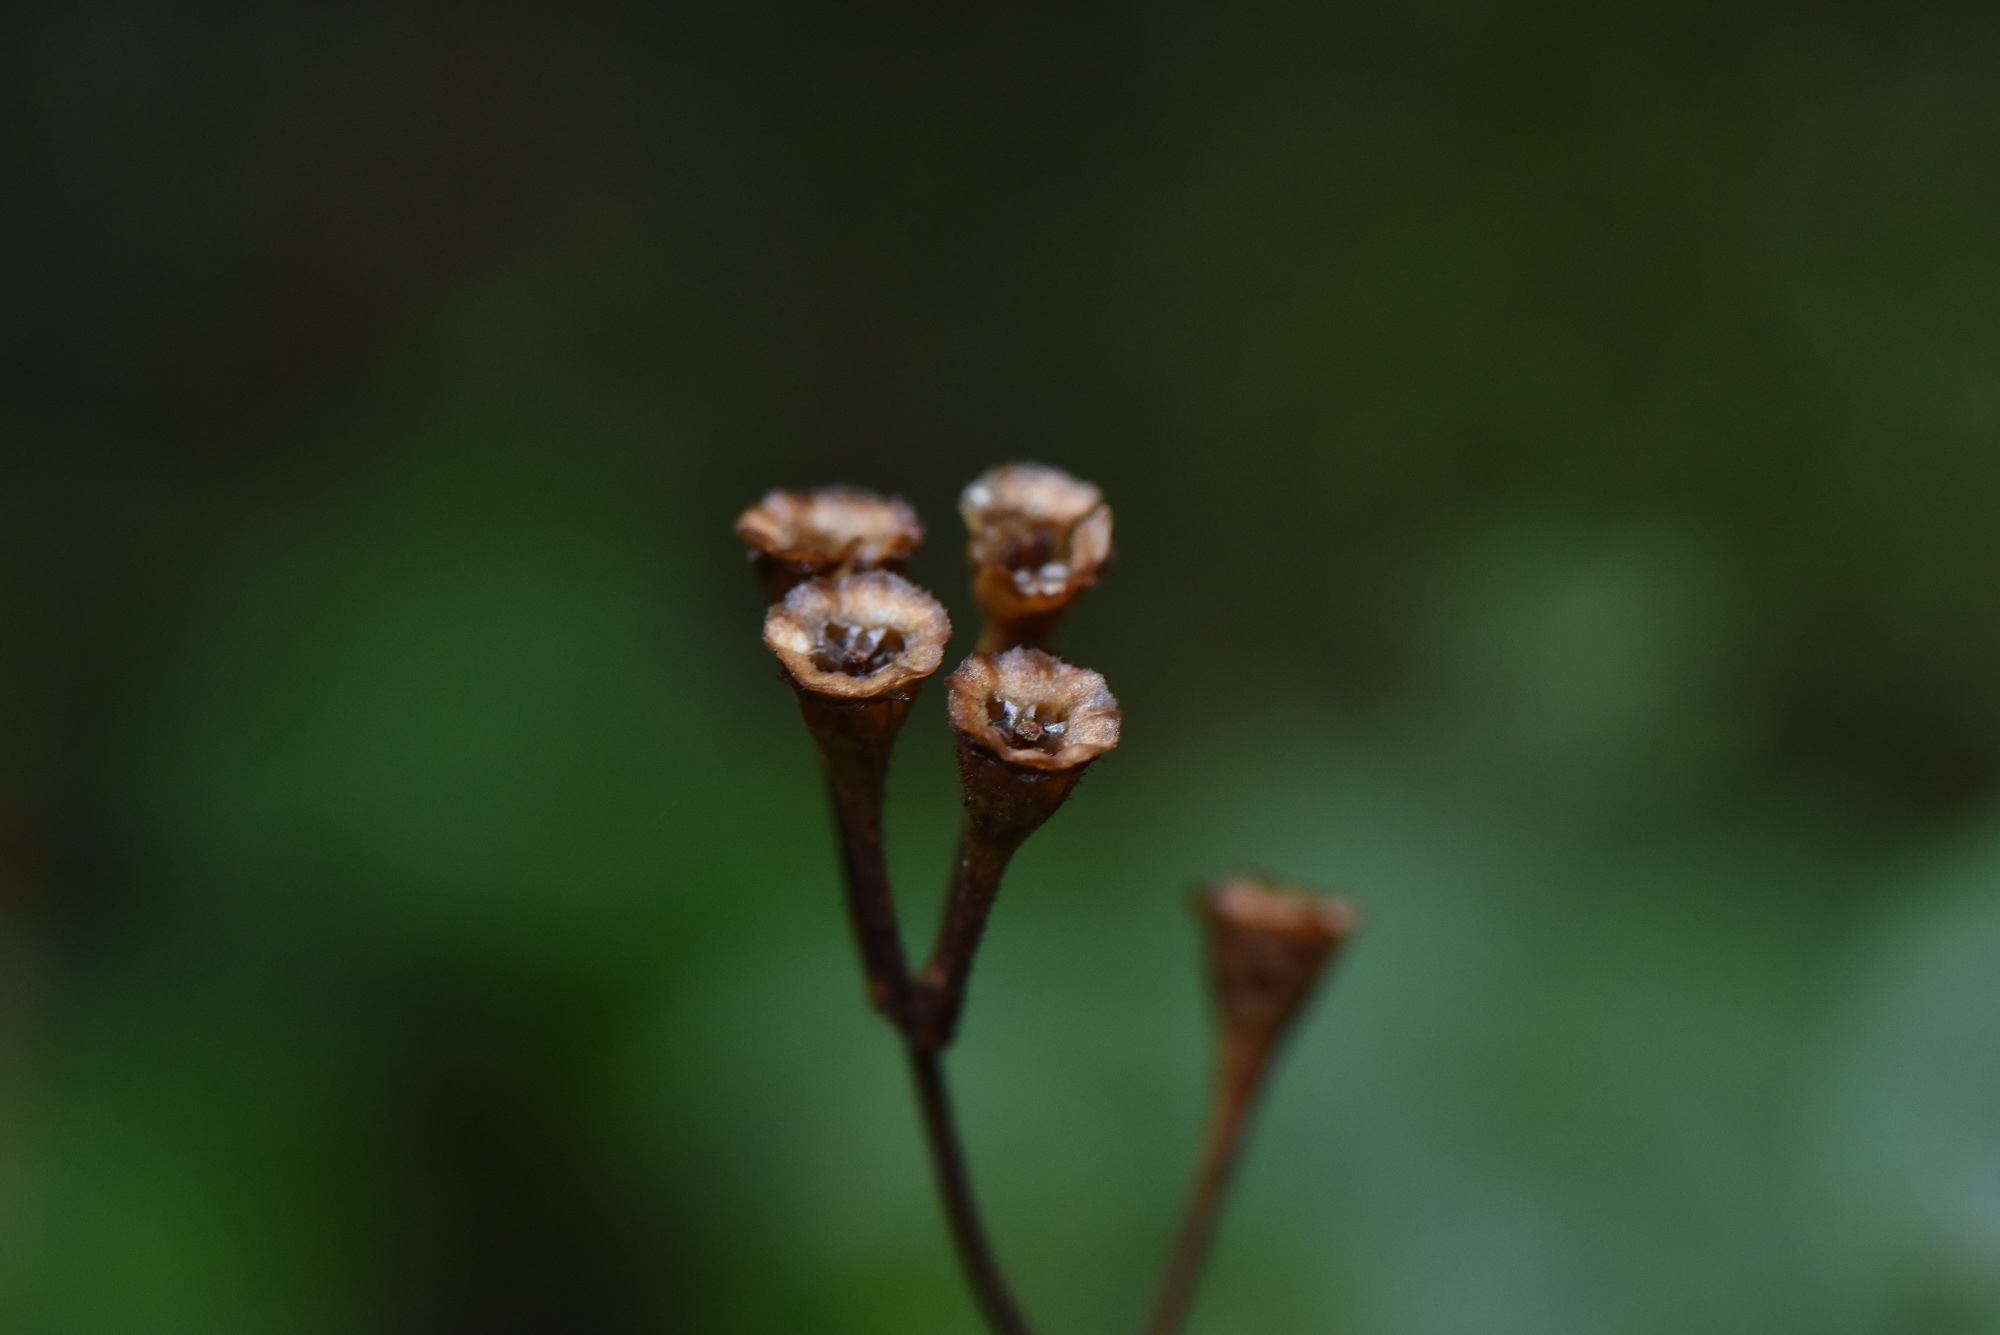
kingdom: Plantae
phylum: Tracheophyta
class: Magnoliopsida
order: Myrtales
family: Melastomataceae
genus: Bredia
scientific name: Bredia hirsuta
